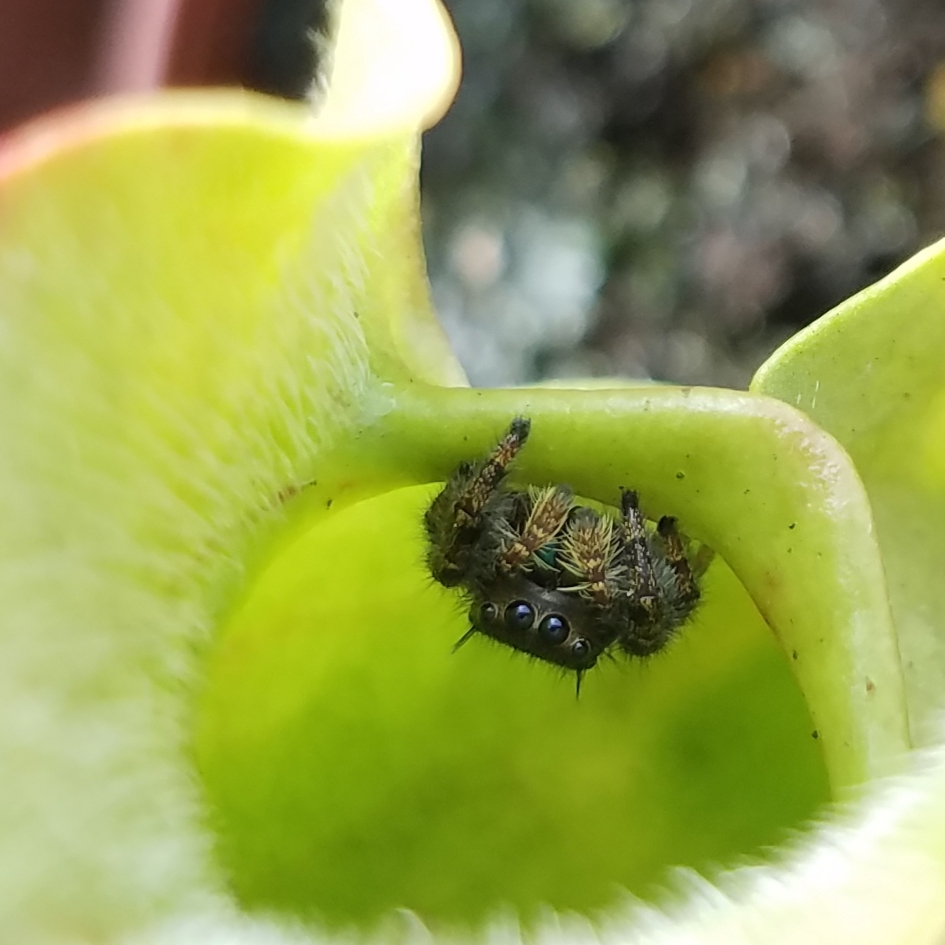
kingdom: Animalia
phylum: Arthropoda
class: Arachnida
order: Araneae
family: Salticidae
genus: Phidippus
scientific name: Phidippus audax
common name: Bold jumper
